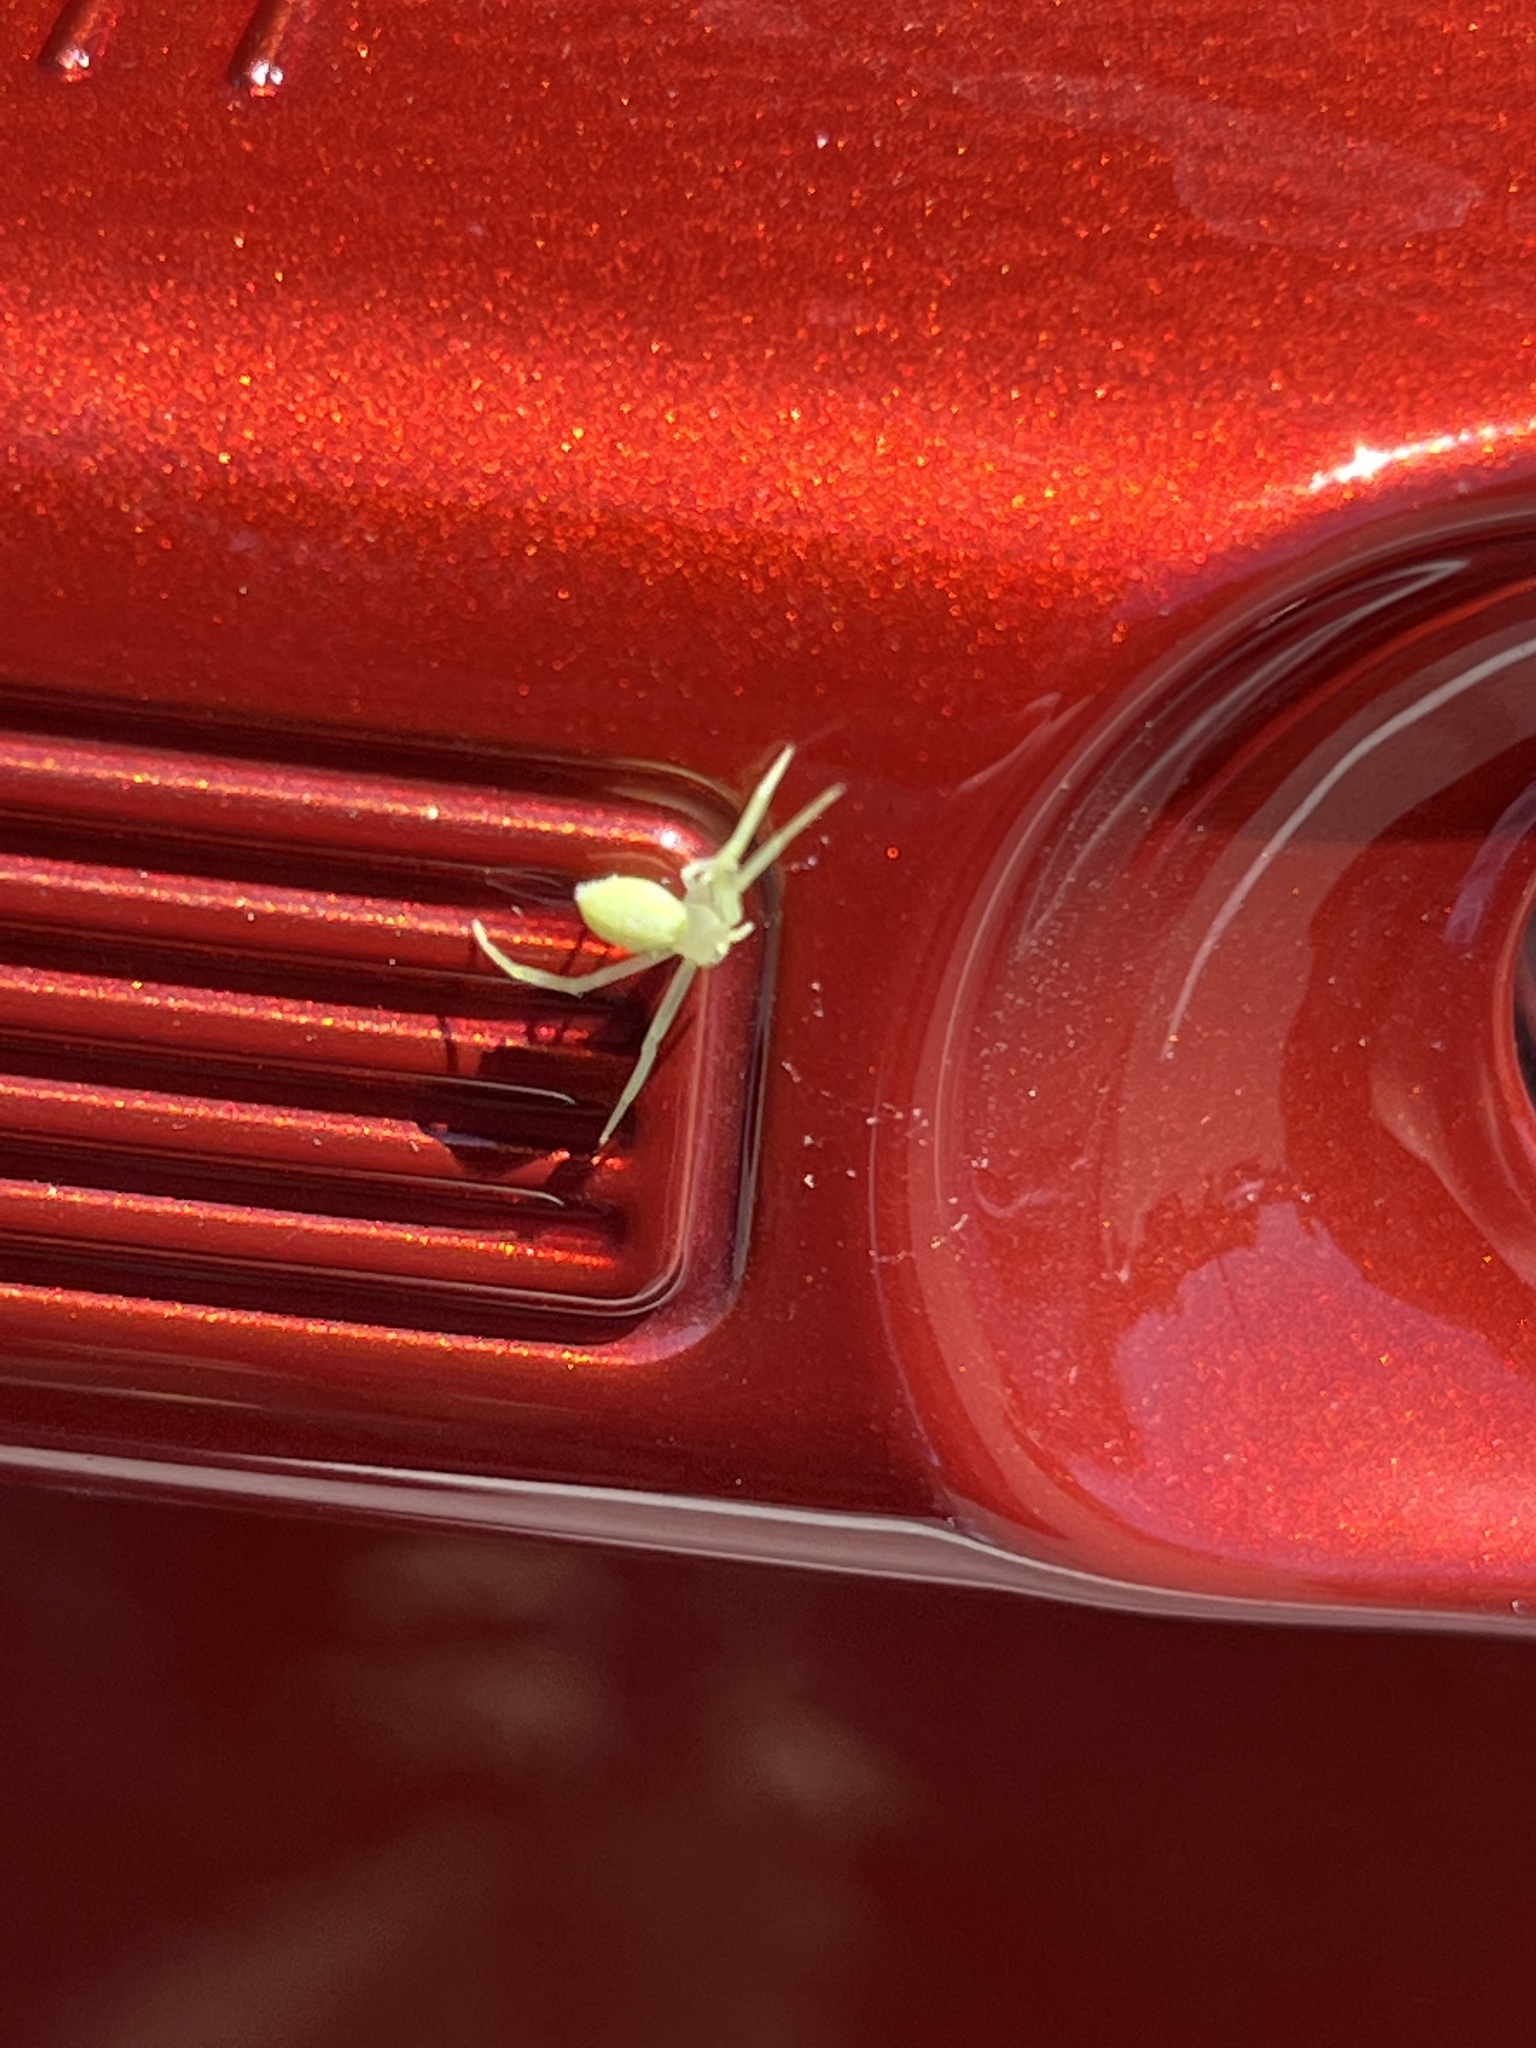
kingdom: Animalia
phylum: Arthropoda
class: Arachnida
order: Araneae
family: Thomisidae
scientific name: Thomisidae
